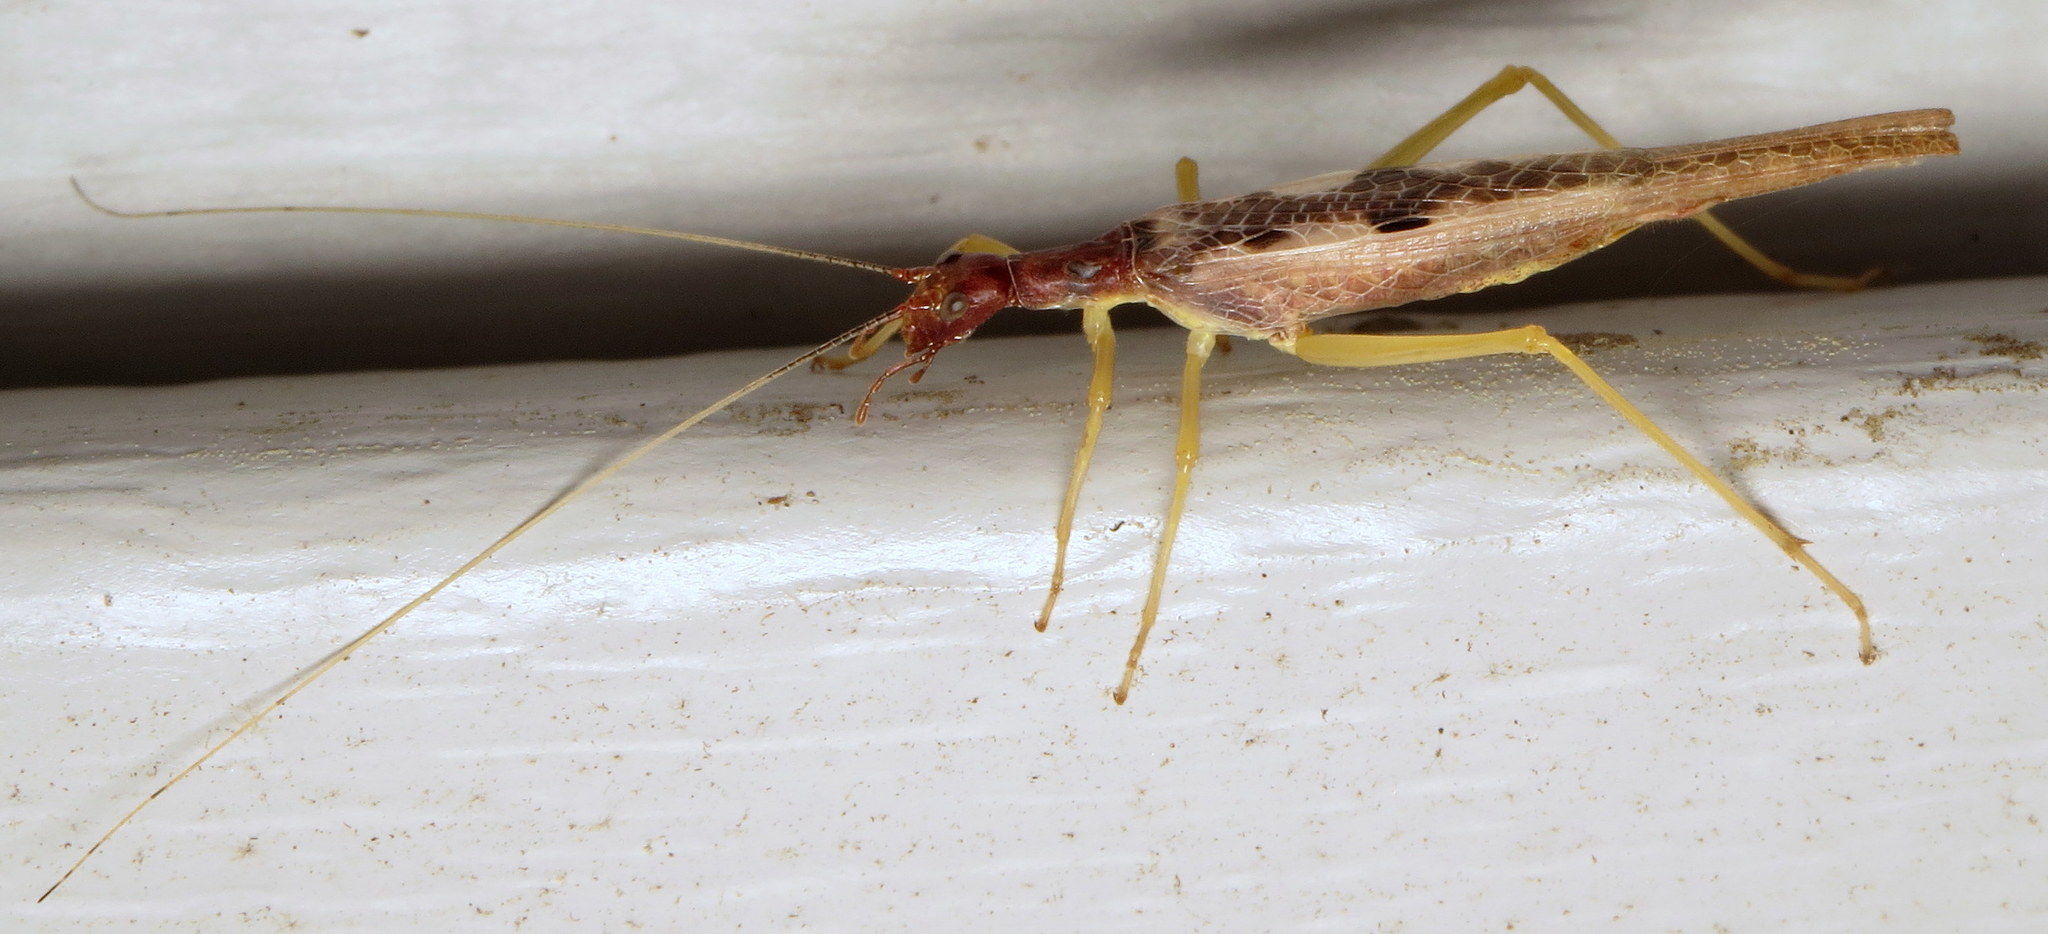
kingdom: Animalia
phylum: Arthropoda
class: Insecta
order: Orthoptera
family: Gryllidae
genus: Neoxabea
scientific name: Neoxabea bipunctata
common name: Two-spotted tree cricket
